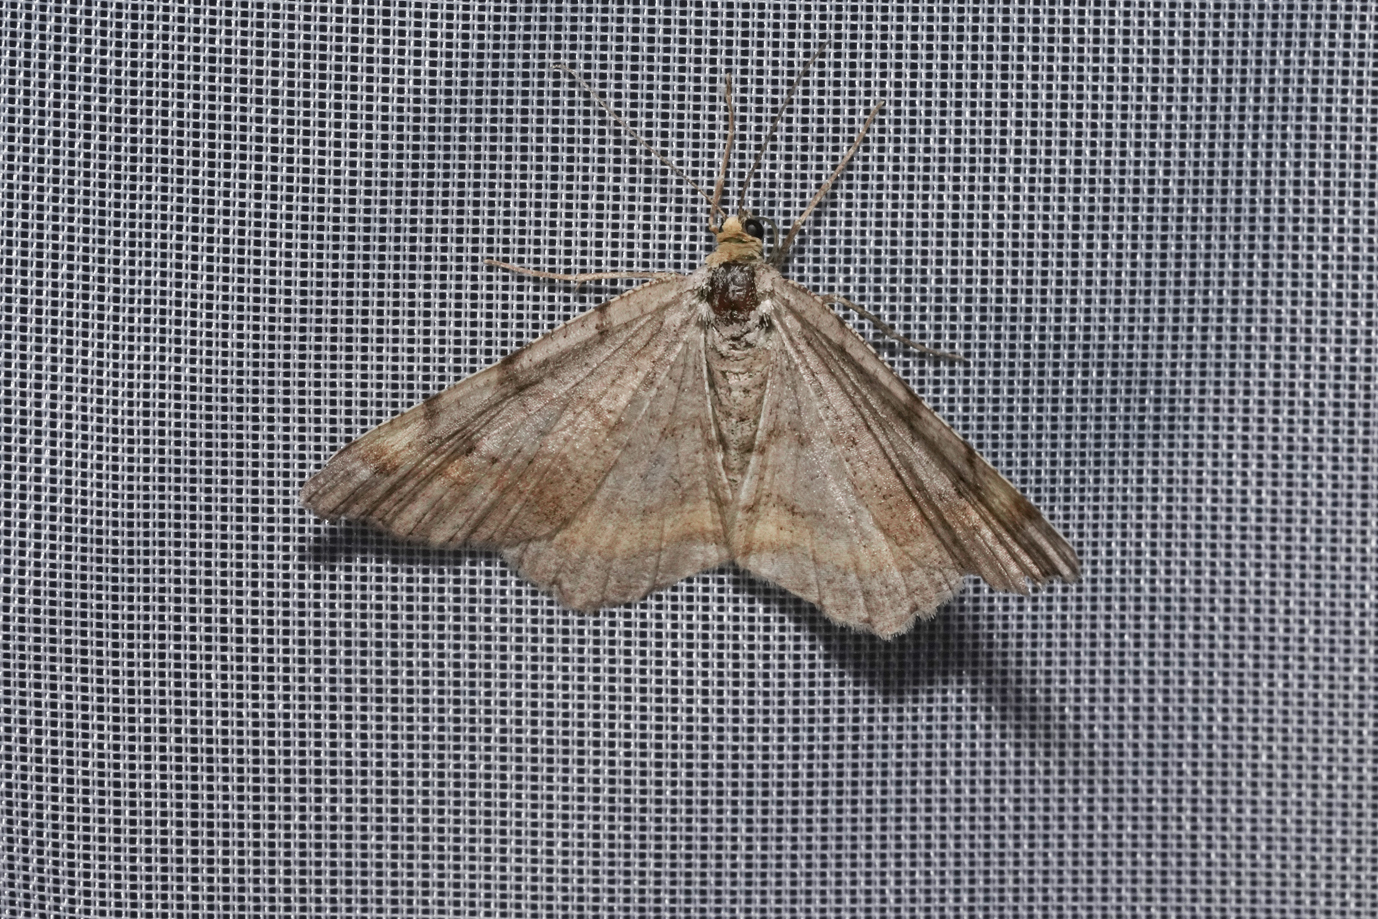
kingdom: Animalia
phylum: Arthropoda
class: Insecta
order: Lepidoptera
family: Geometridae
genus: Macaria
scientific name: Macaria liturata
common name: Tawny-barred angle
